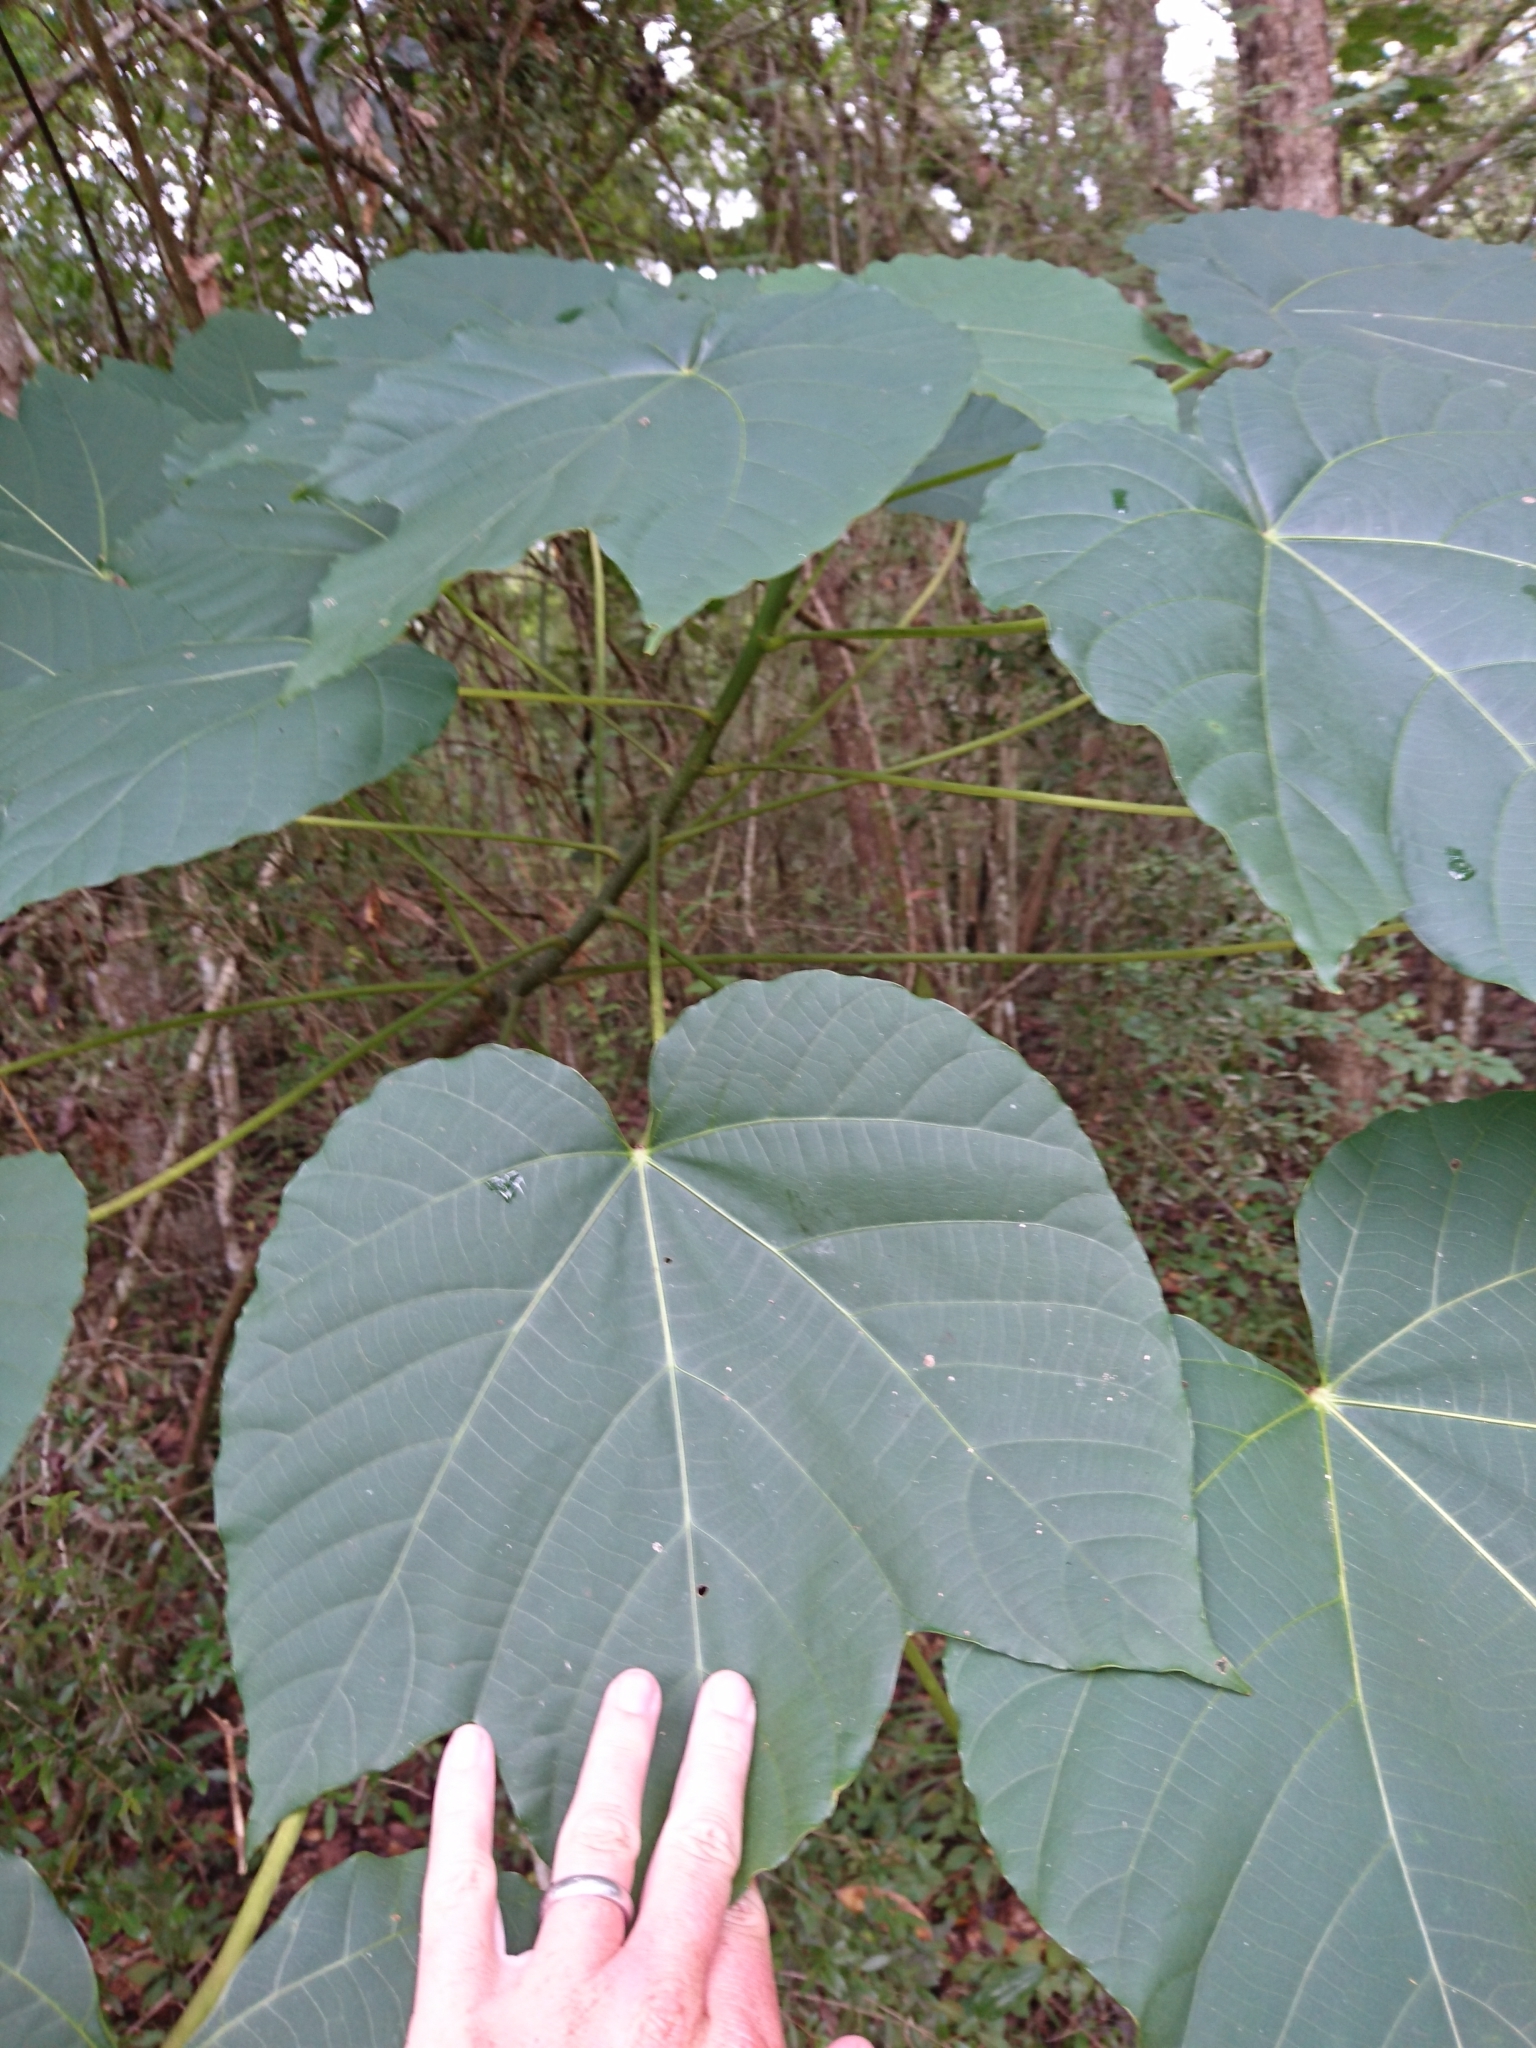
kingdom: Plantae
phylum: Tracheophyta
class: Magnoliopsida
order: Malpighiales
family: Euphorbiaceae
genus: Vernicia
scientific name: Vernicia fordii
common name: Tungoil tree
